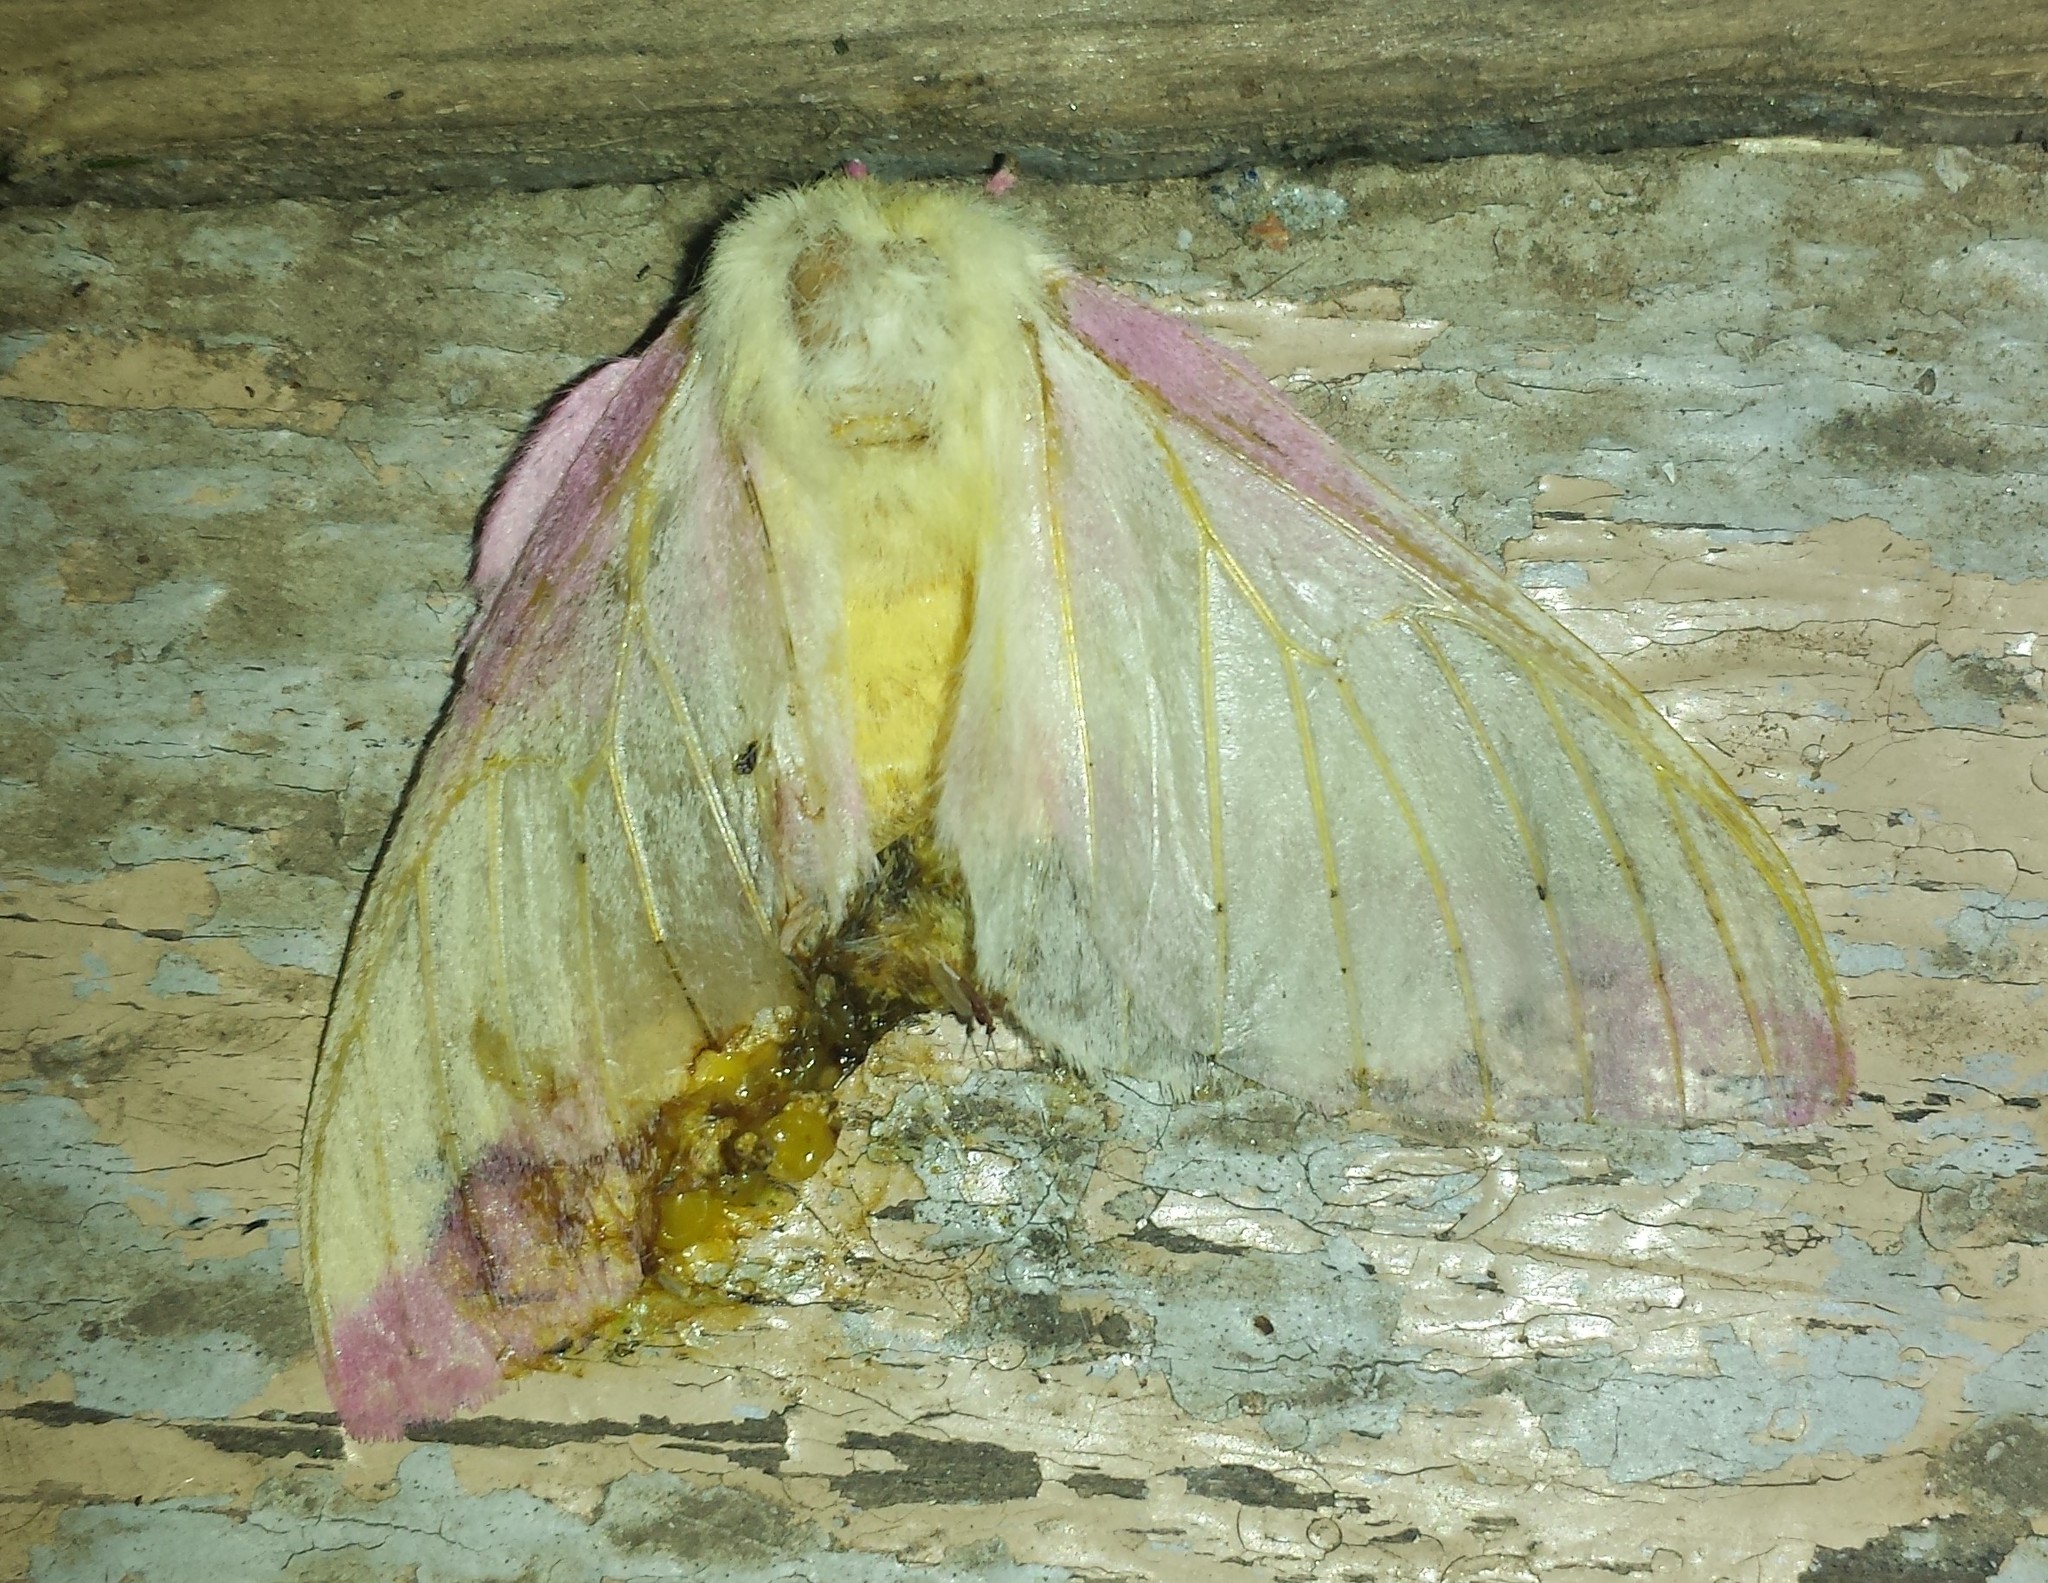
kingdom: Animalia
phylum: Arthropoda
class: Insecta
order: Lepidoptera
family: Saturniidae
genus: Dryocampa
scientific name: Dryocampa rubicunda
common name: Rosy maple moth
